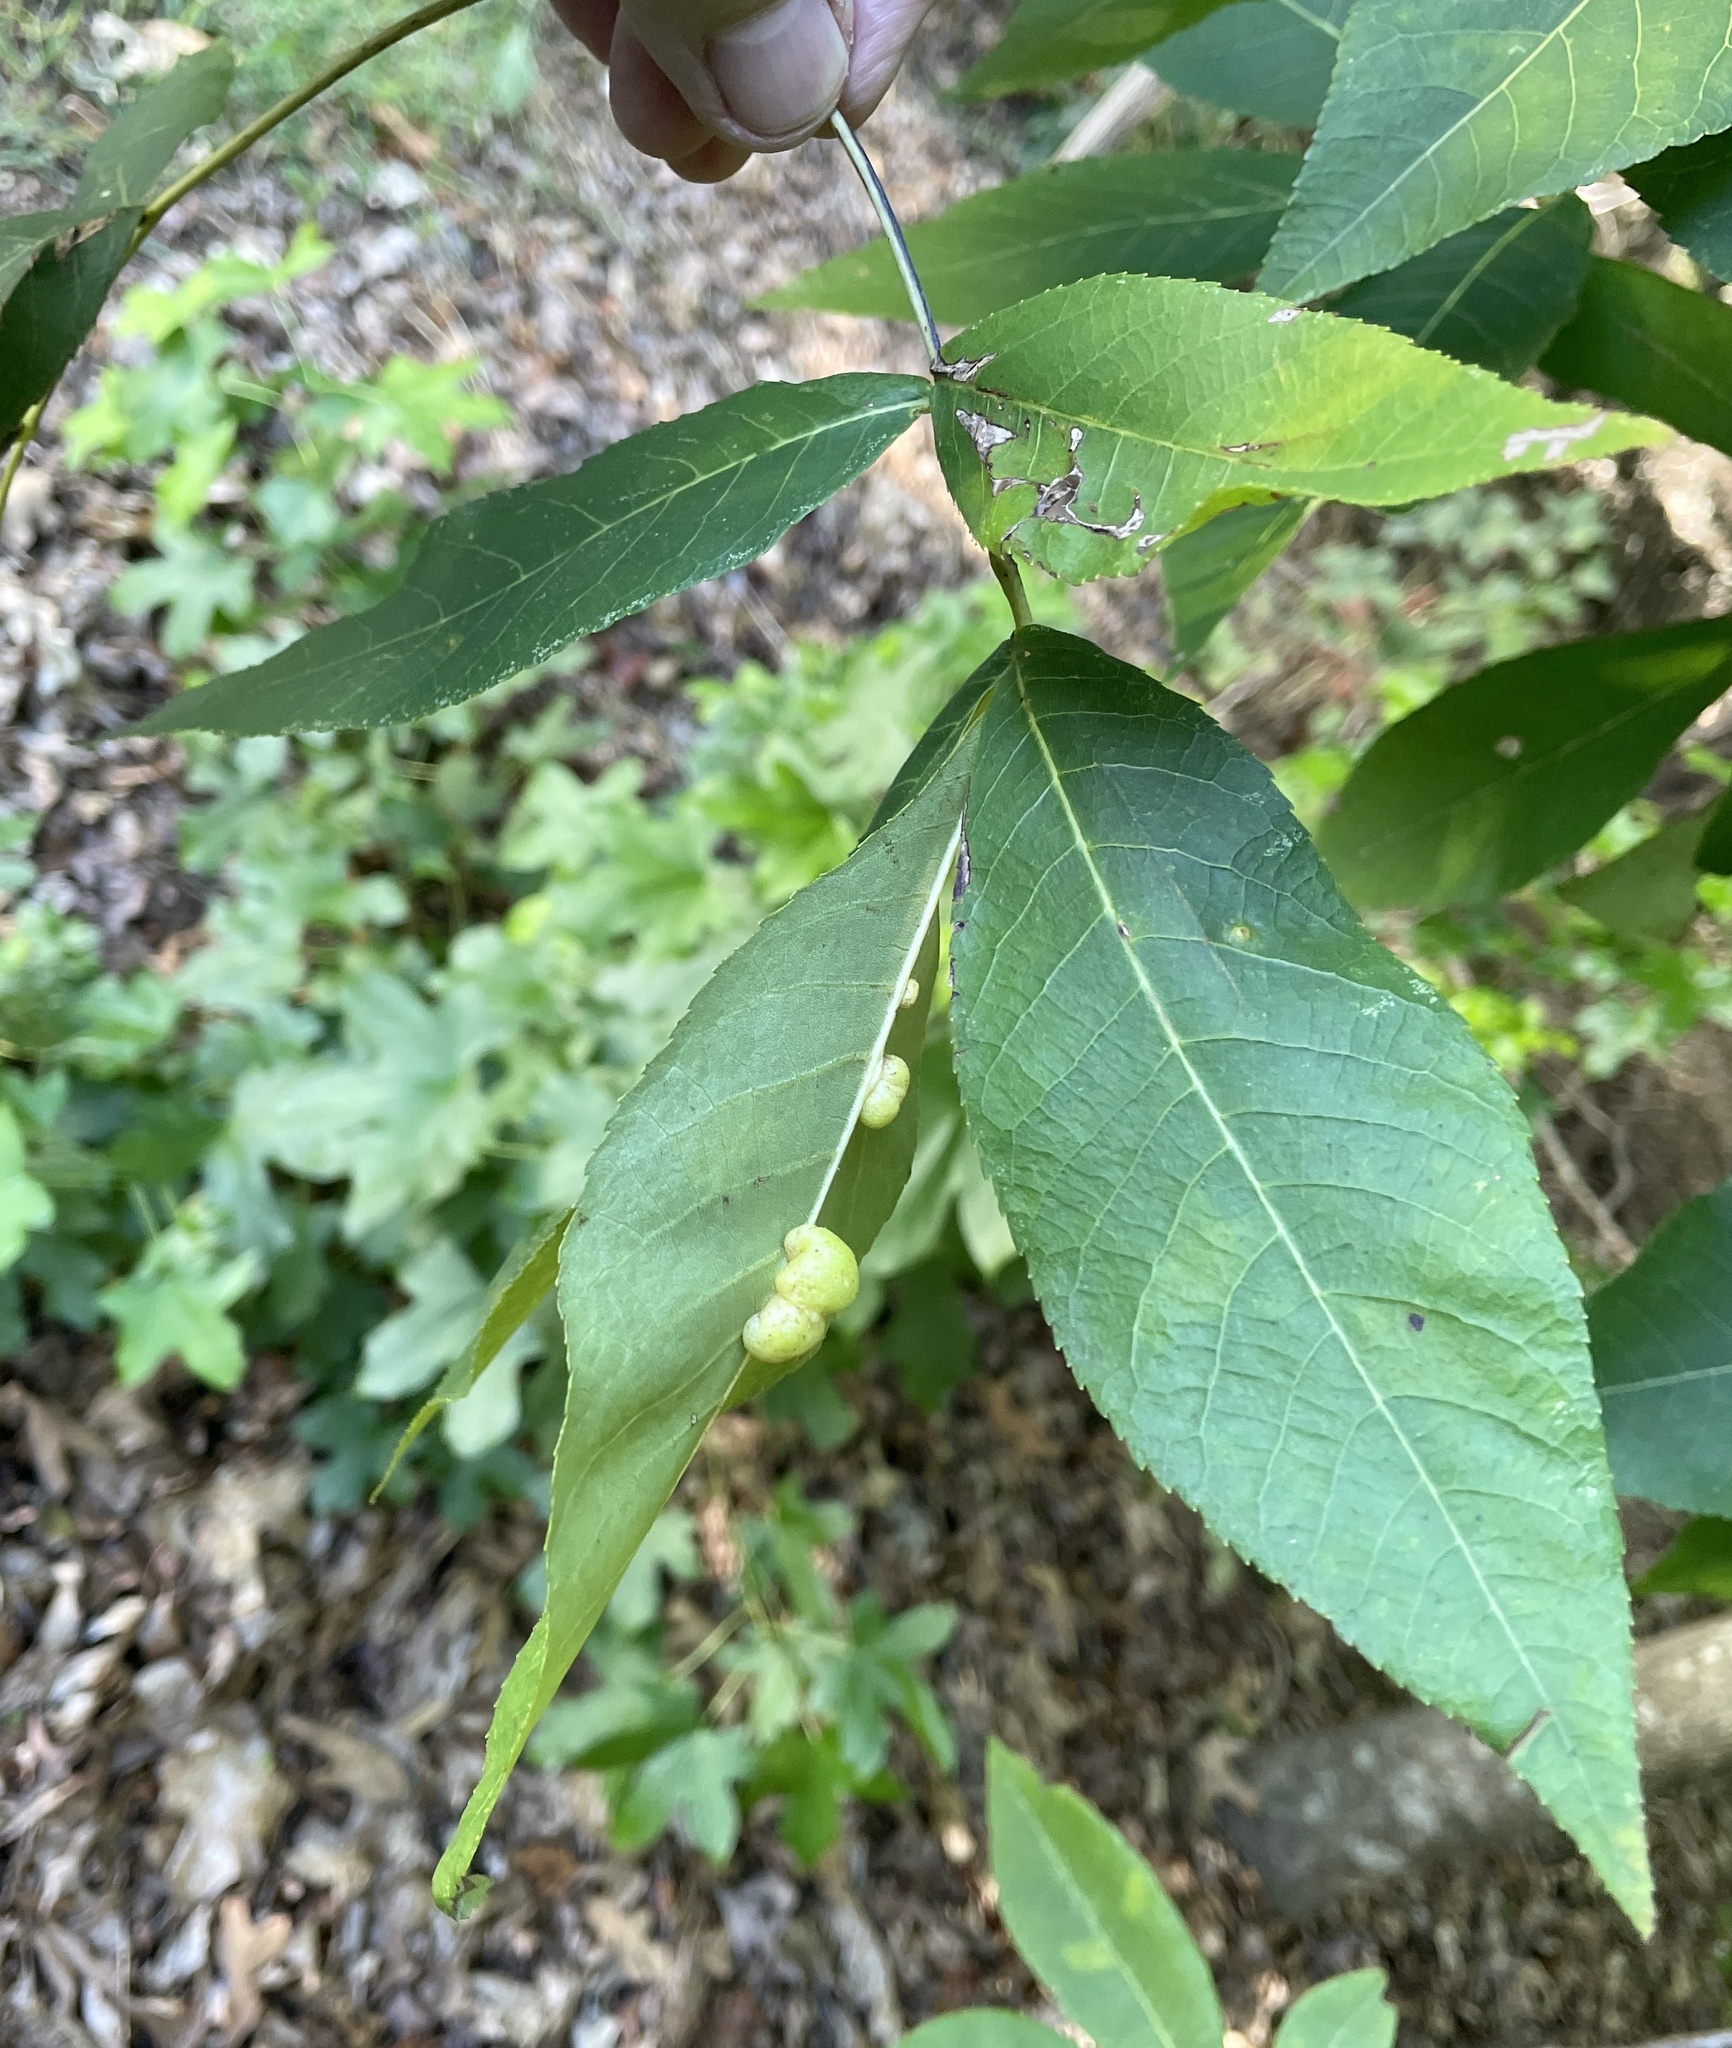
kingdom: Animalia
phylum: Arthropoda
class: Insecta
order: Diptera
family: Cecidomyiidae
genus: Caryomyia
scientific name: Caryomyia cynipsea
